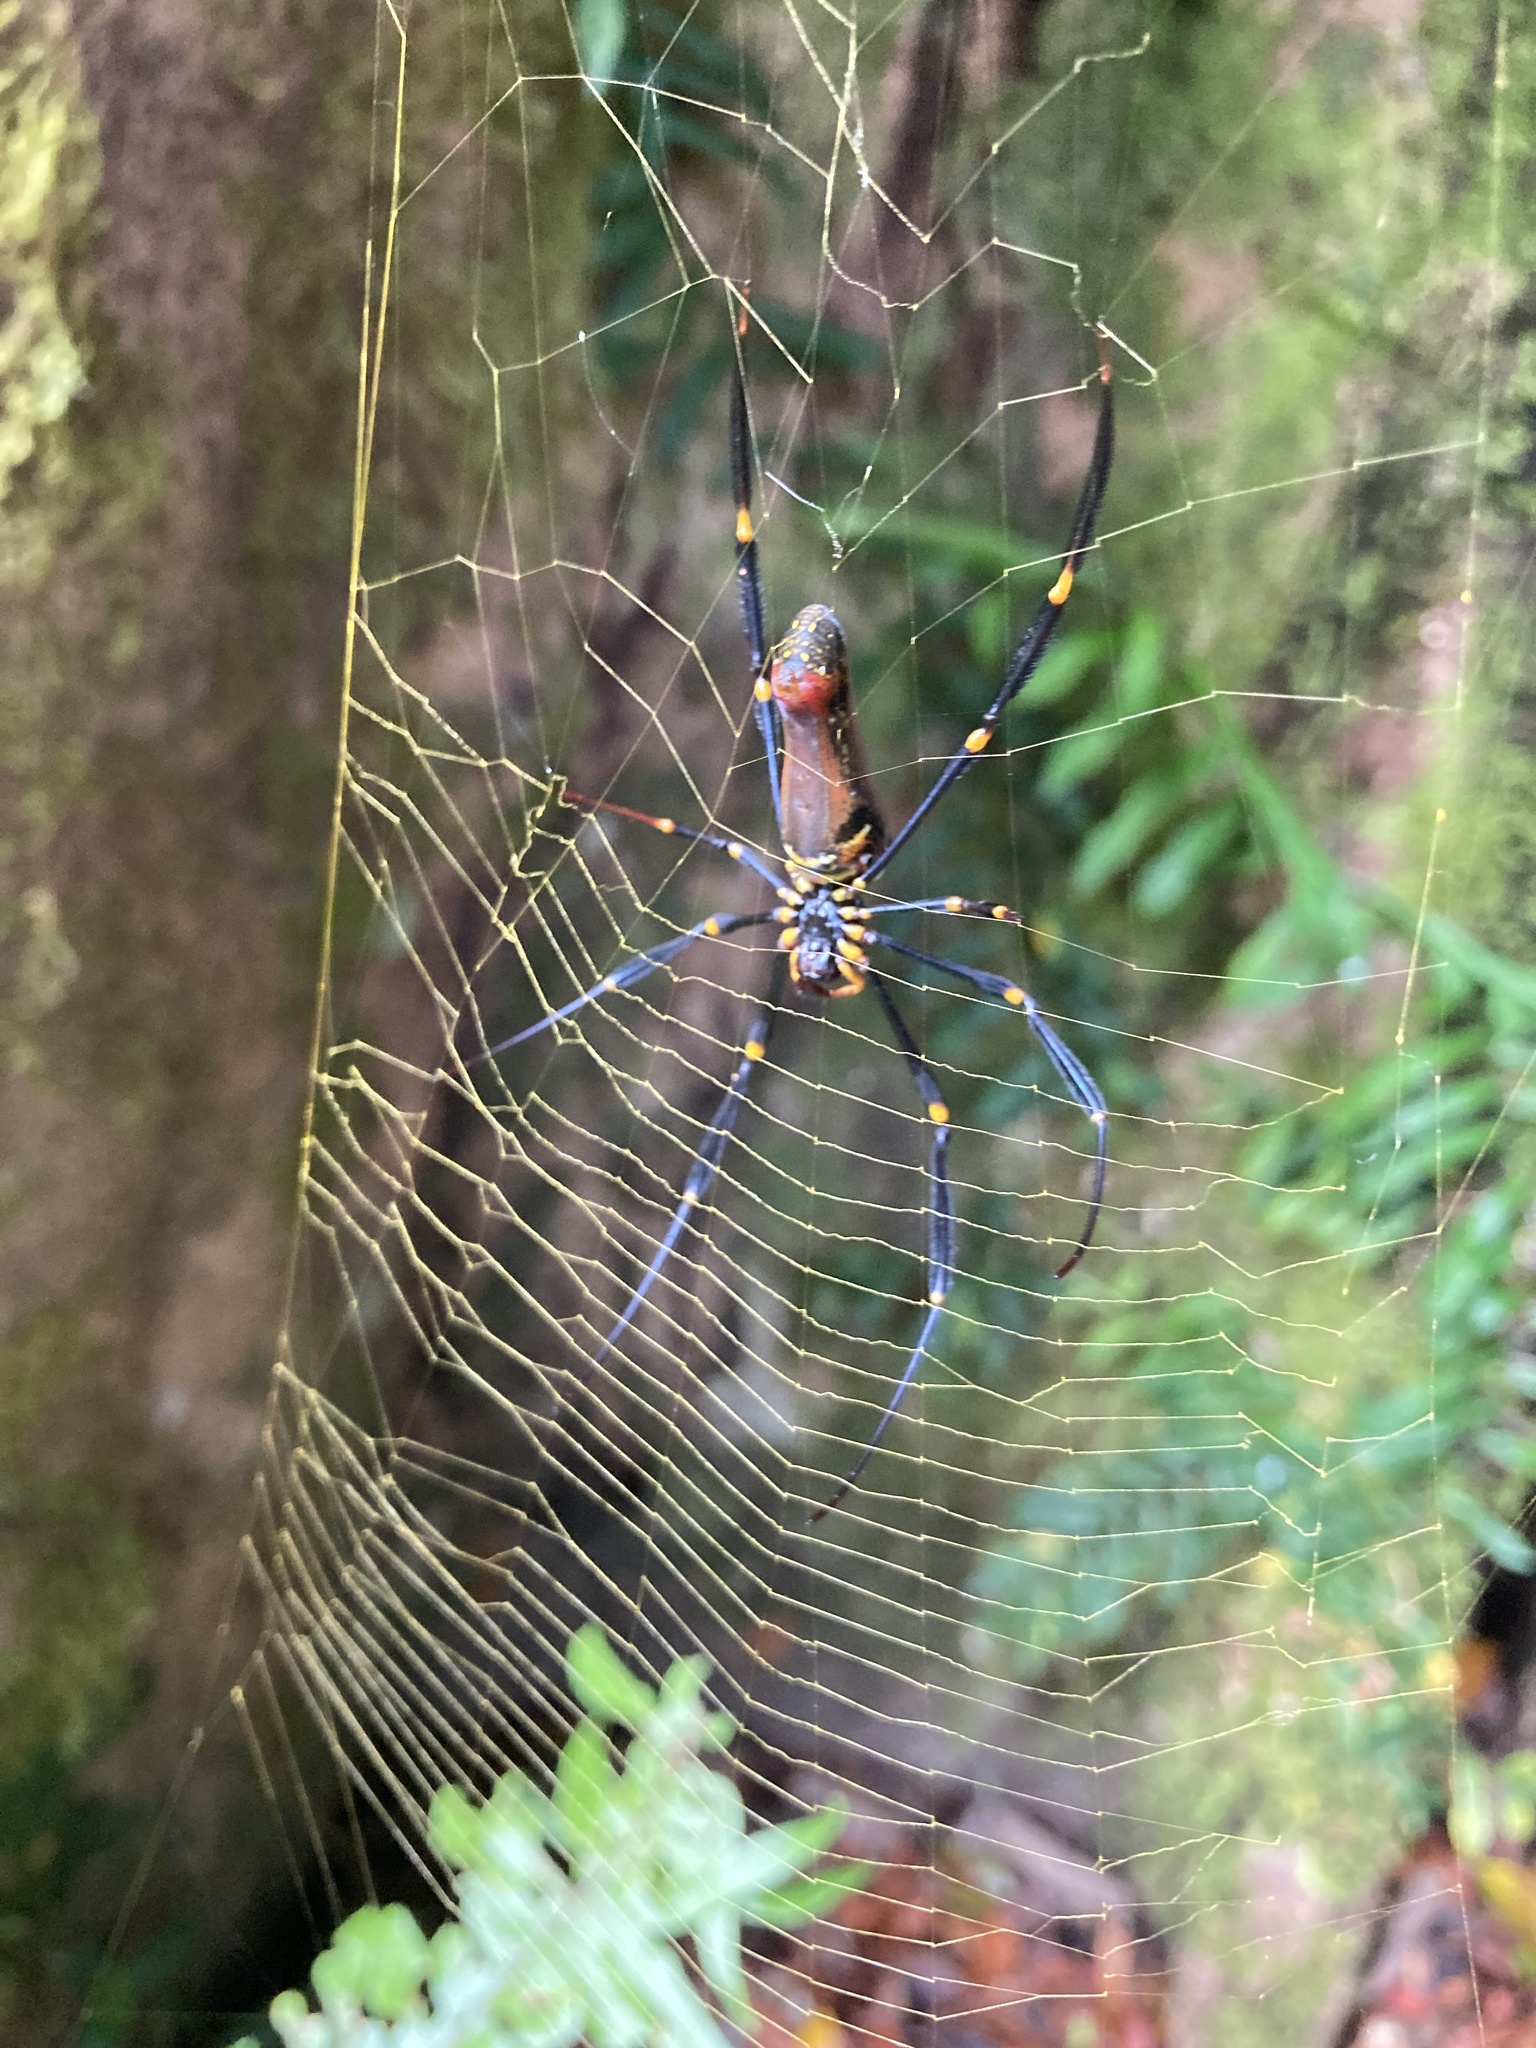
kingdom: Animalia
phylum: Arthropoda
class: Arachnida
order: Araneae
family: Araneidae
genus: Nephila
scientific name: Nephila pilipes
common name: Giant golden orb weaver
